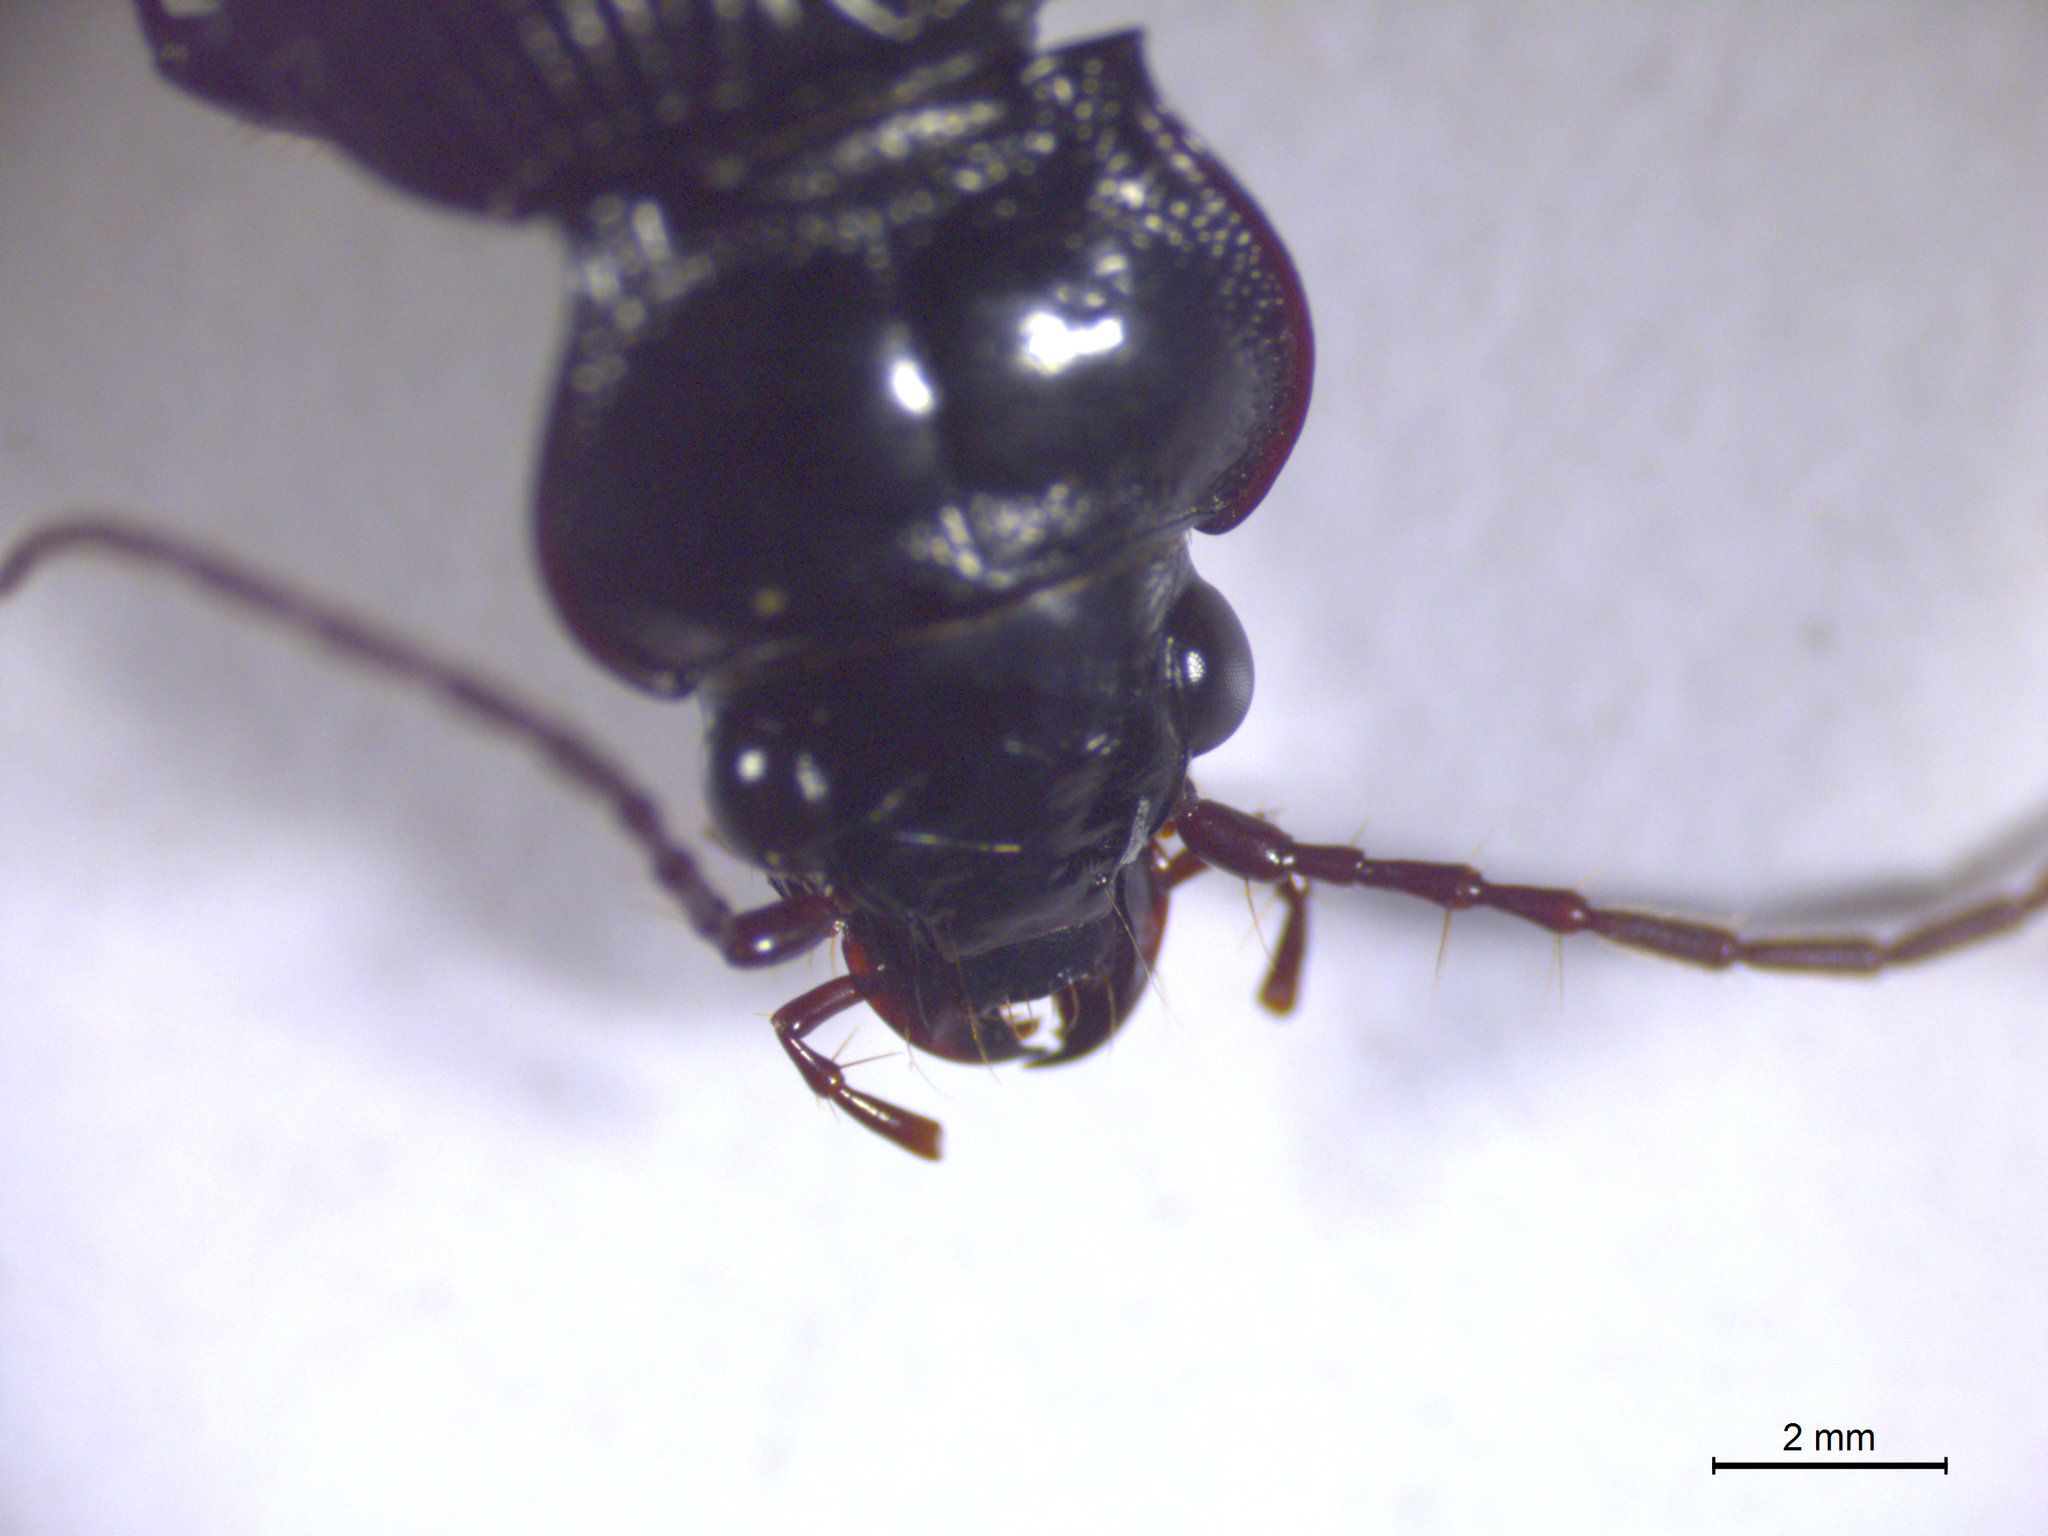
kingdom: Animalia
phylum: Arthropoda
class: Insecta
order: Coleoptera
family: Carabidae
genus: Nebria
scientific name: Nebria brevicollis
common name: Short-necked gazelle beetle
